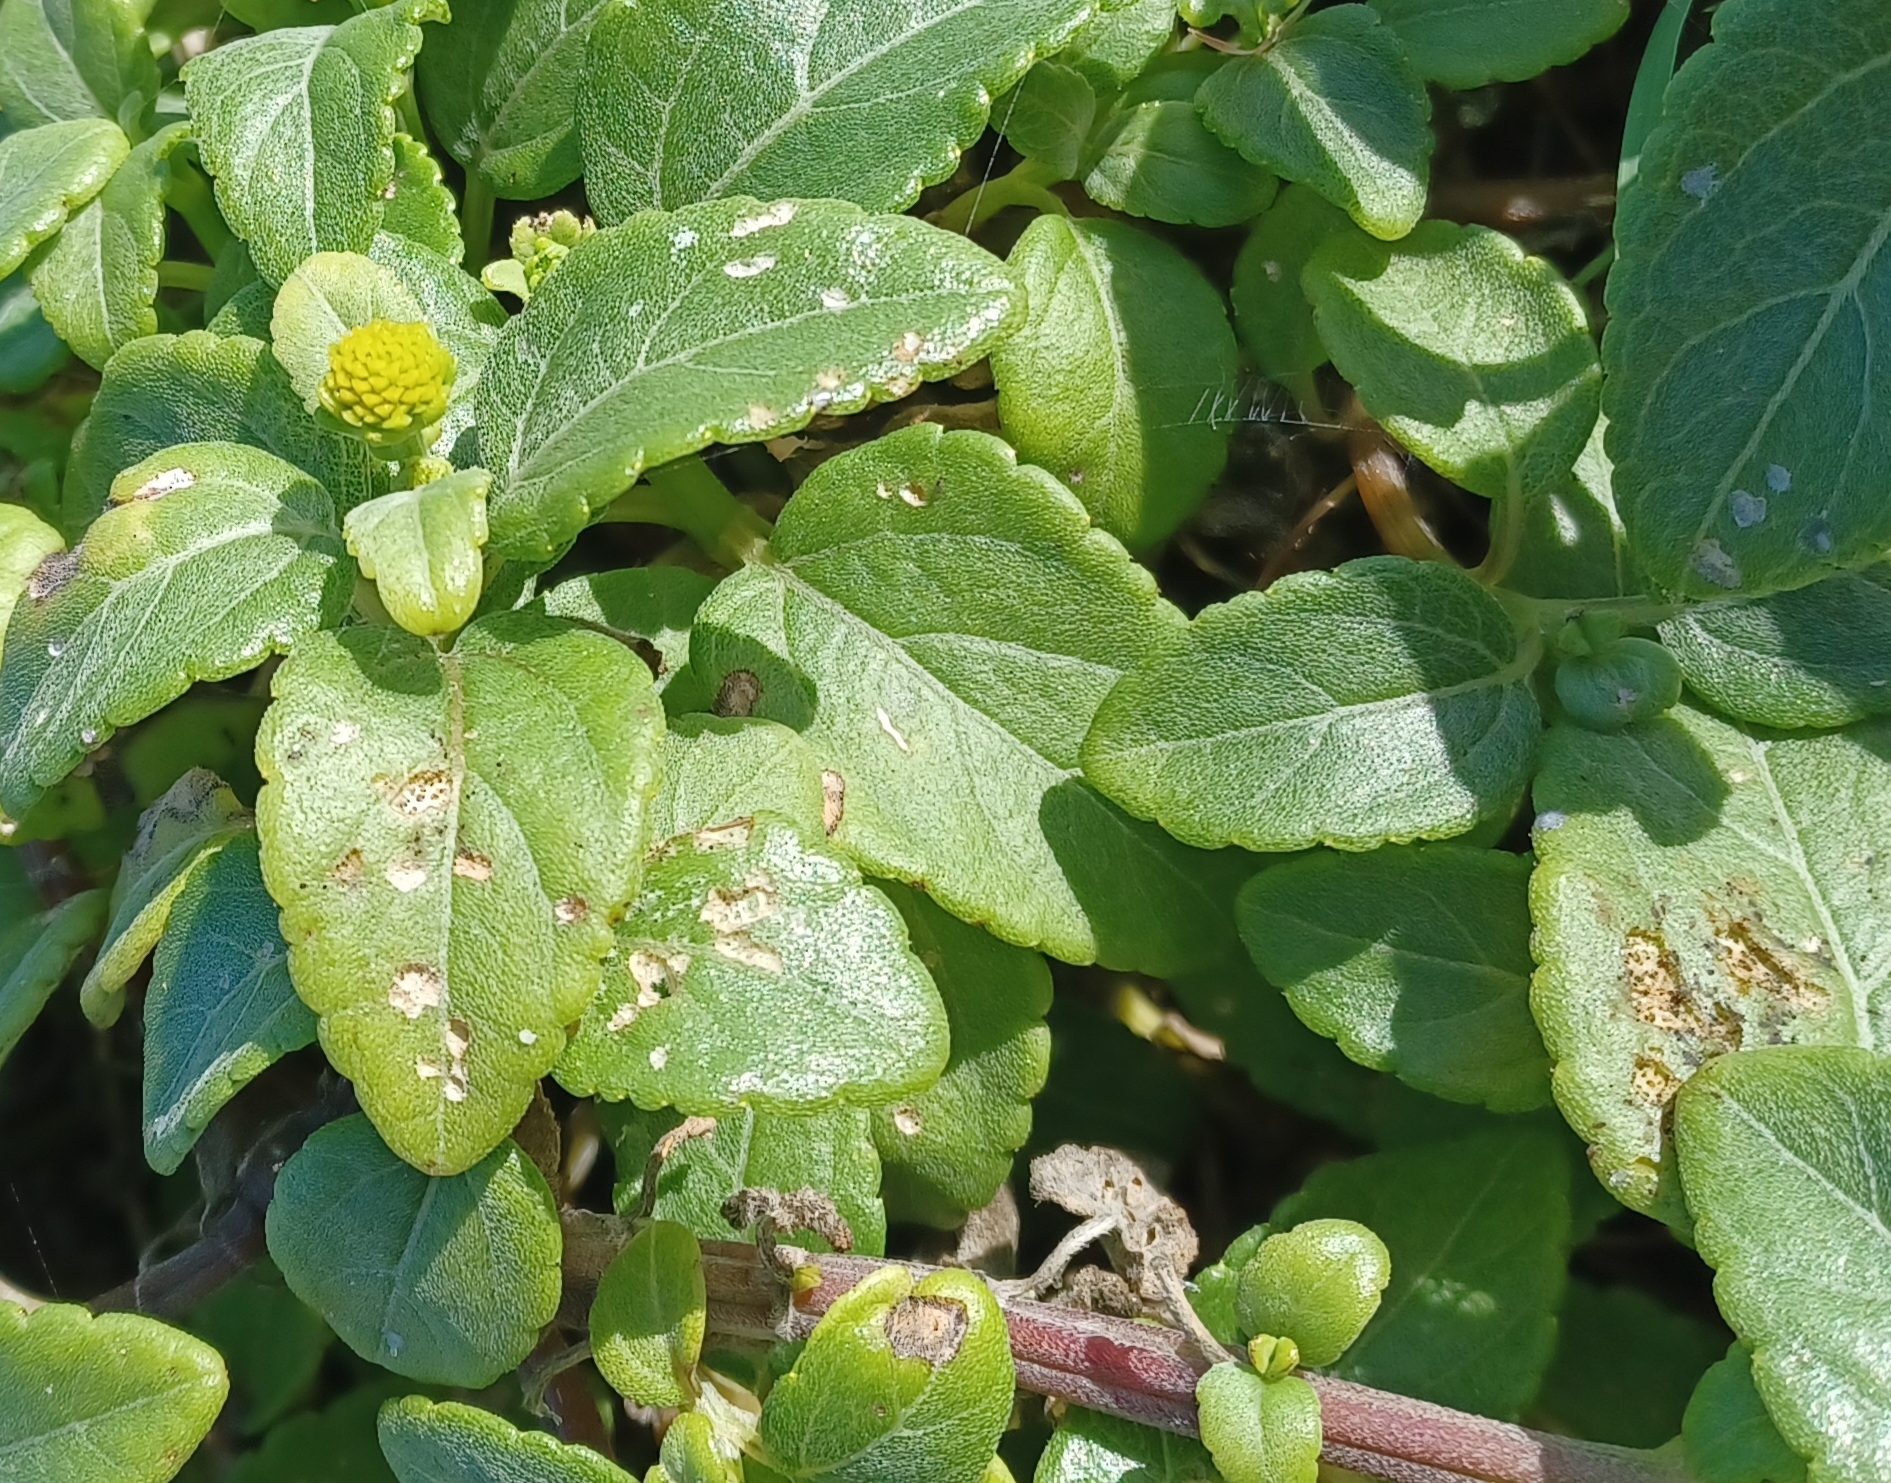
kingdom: Plantae
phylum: Tracheophyta
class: Magnoliopsida
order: Asterales
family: Asteraceae
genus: Wollastonia
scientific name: Wollastonia uniflora
